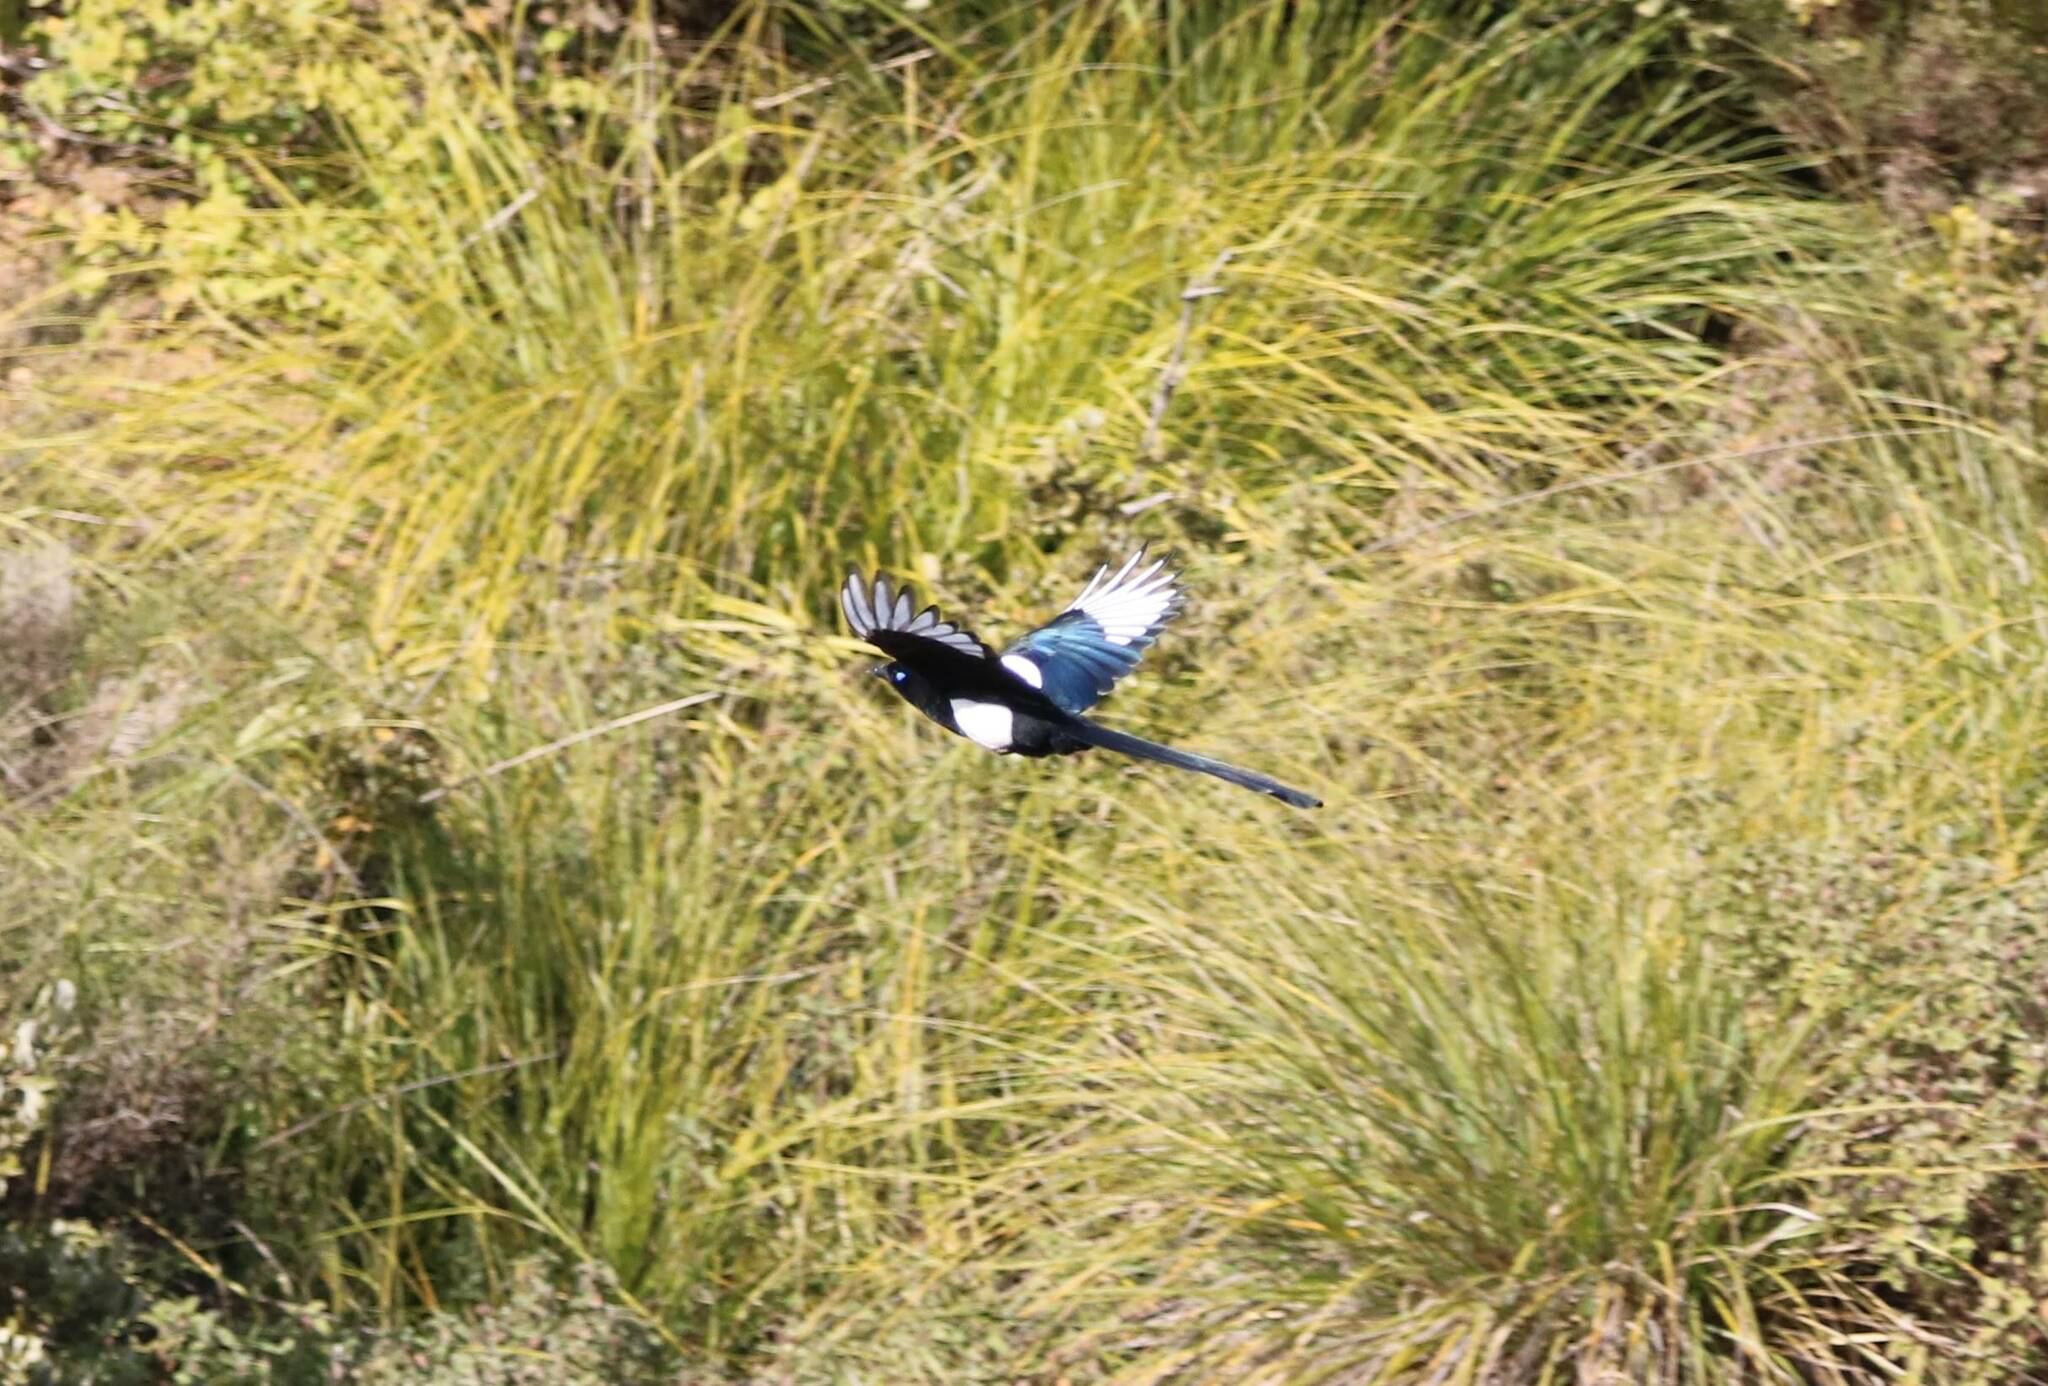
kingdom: Animalia
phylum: Chordata
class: Aves
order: Passeriformes
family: Corvidae
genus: Pica
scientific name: Pica mauritanica
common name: Maghreb magpie
